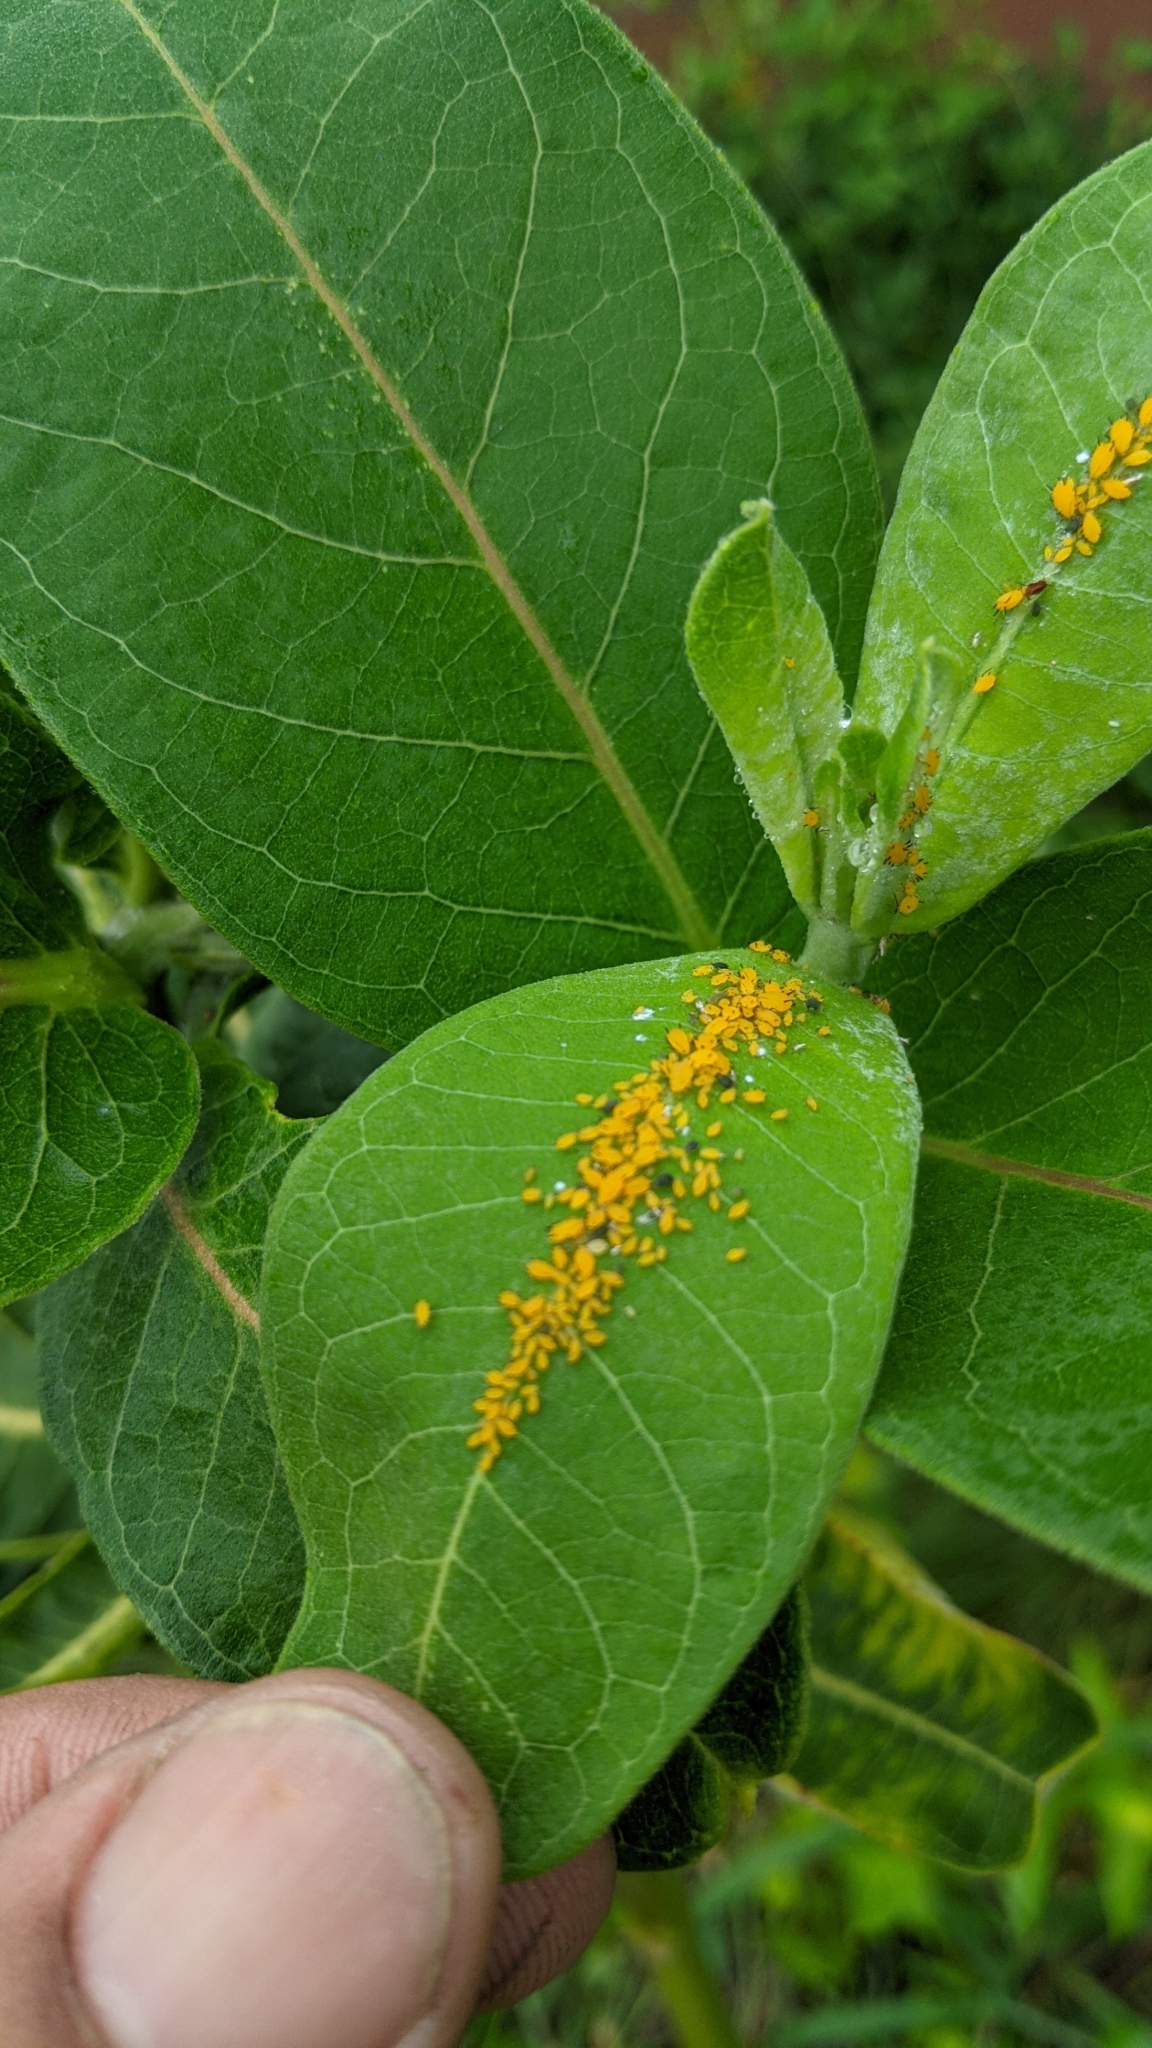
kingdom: Animalia
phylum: Arthropoda
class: Insecta
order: Hemiptera
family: Aphididae
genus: Aphis
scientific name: Aphis nerii
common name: Oleander aphid
